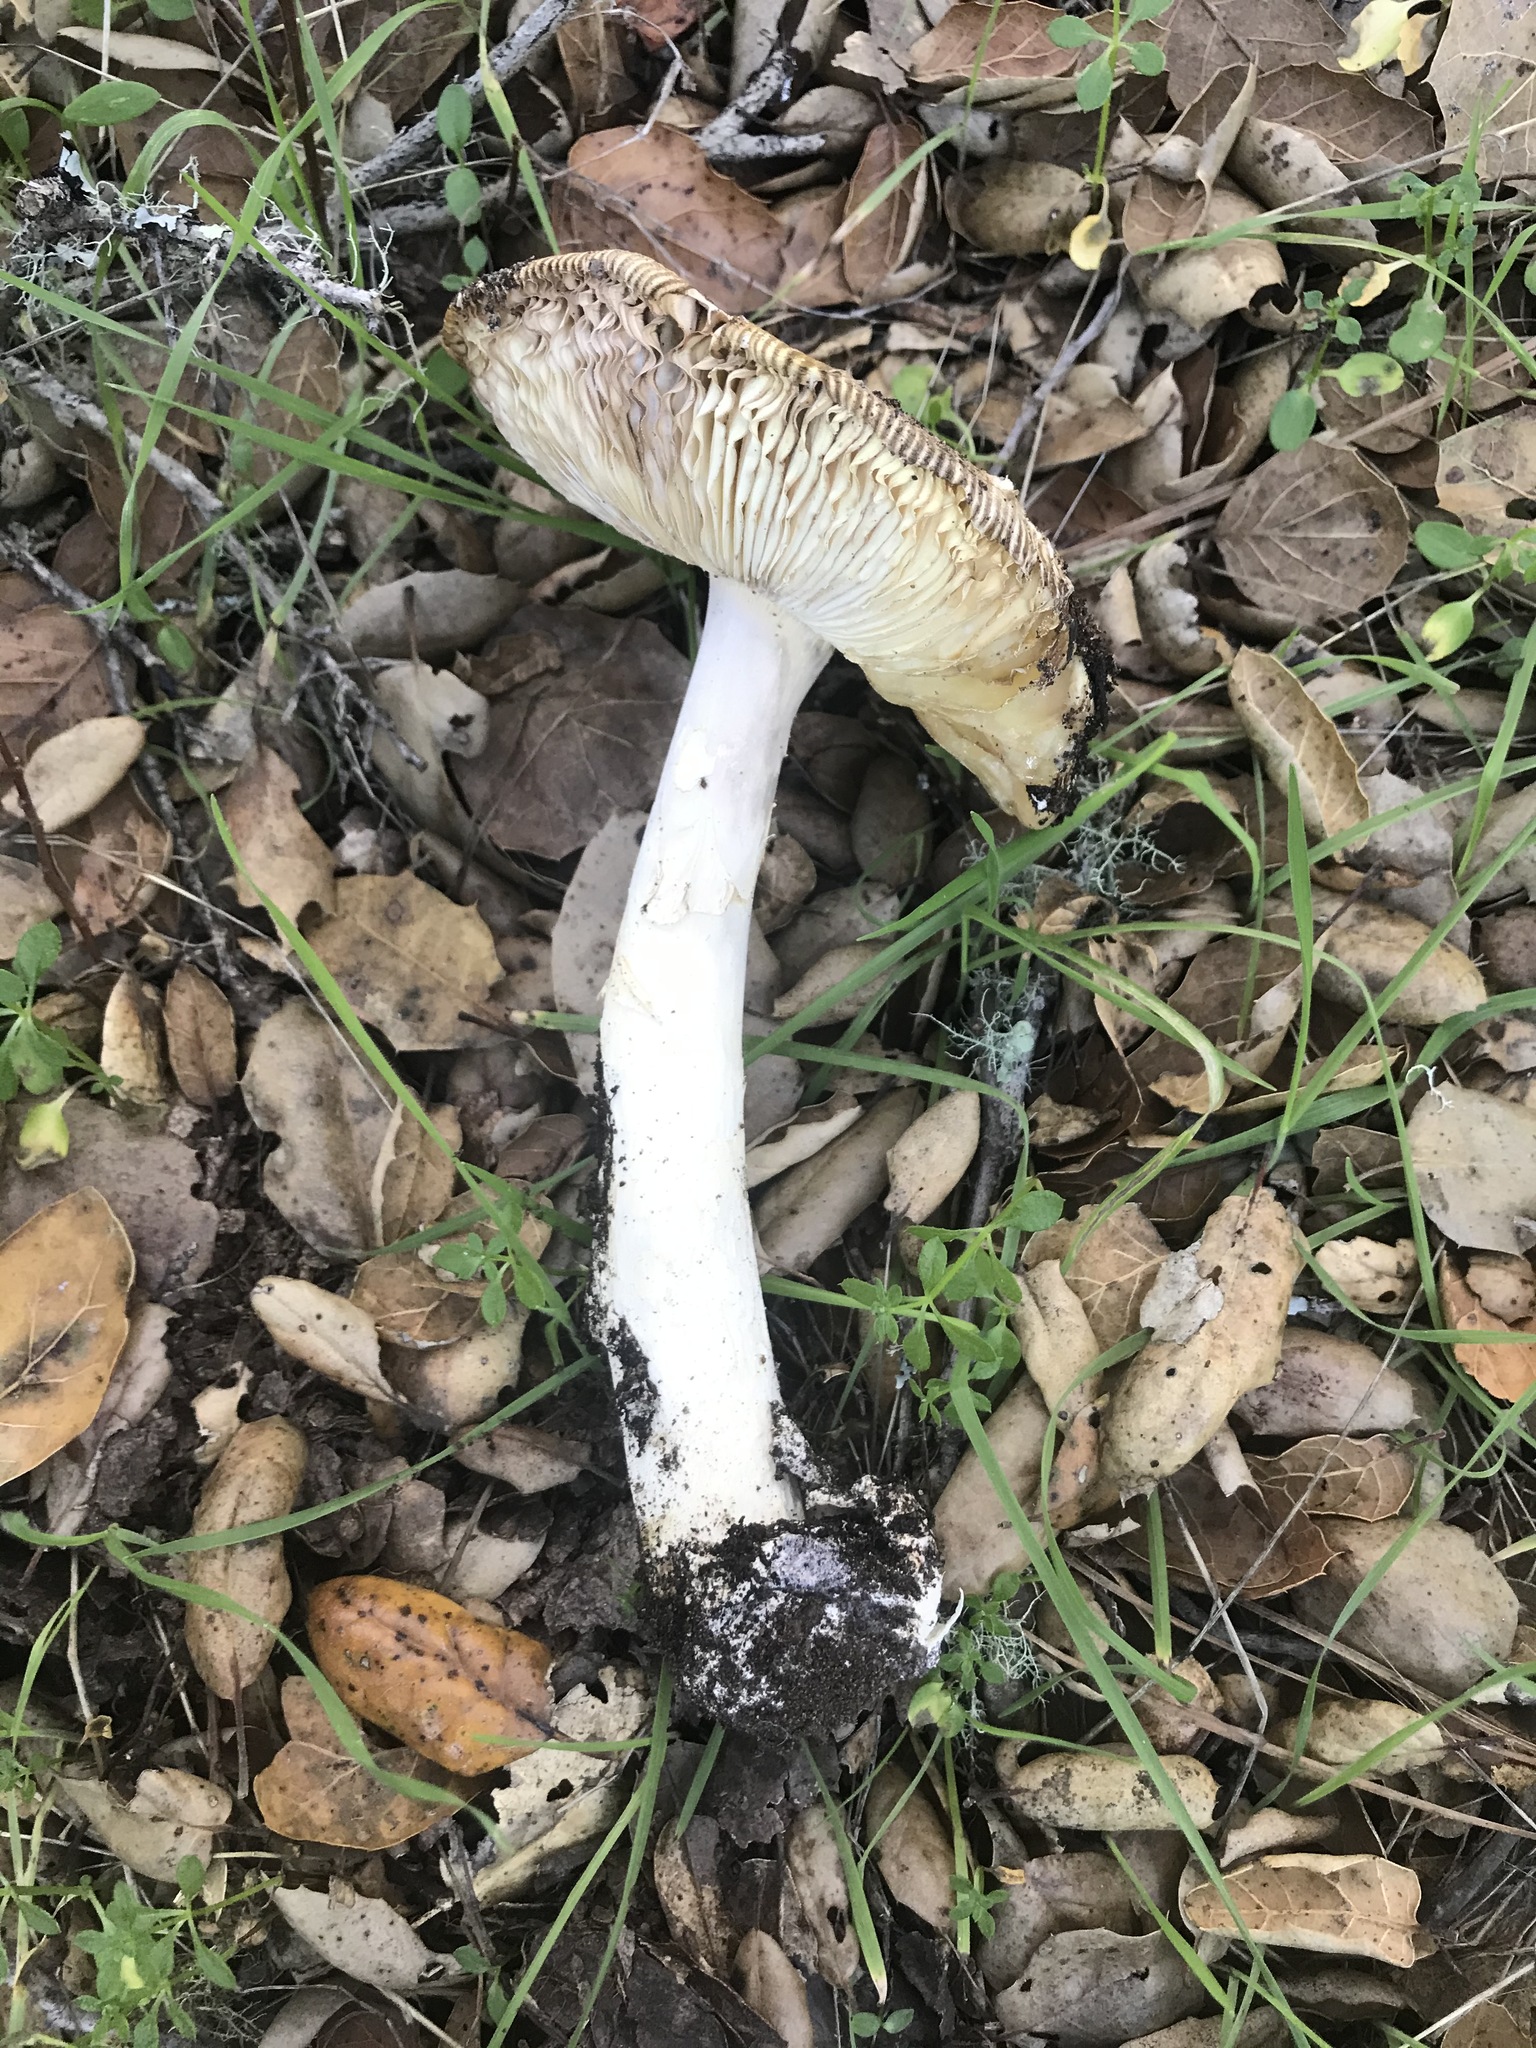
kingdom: Fungi
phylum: Basidiomycota
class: Agaricomycetes
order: Agaricales
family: Amanitaceae
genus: Amanita
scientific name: Amanita velosa
